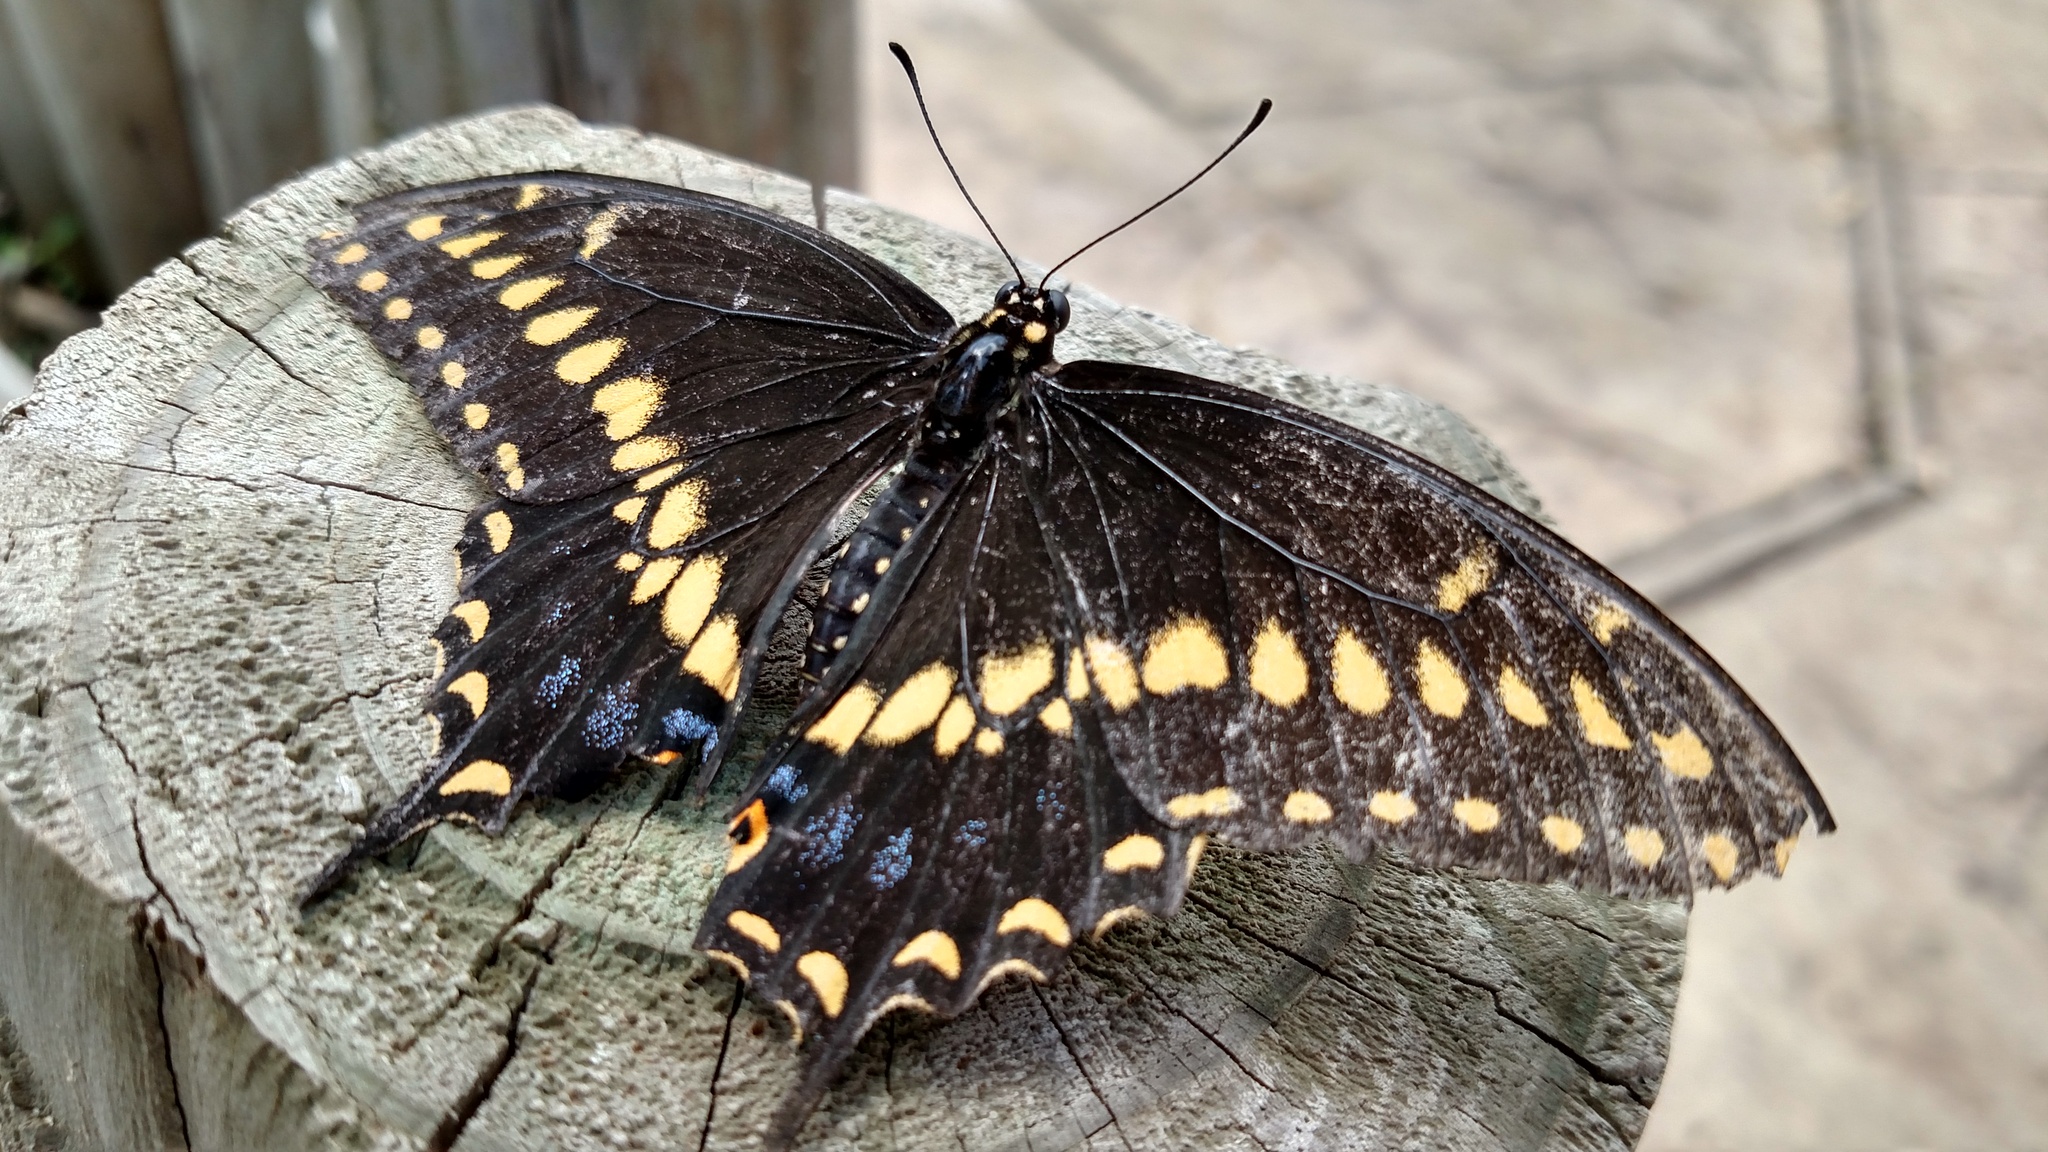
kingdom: Animalia
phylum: Arthropoda
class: Insecta
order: Lepidoptera
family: Papilionidae
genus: Papilio
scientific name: Papilio polyxenes
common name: Black swallowtail
